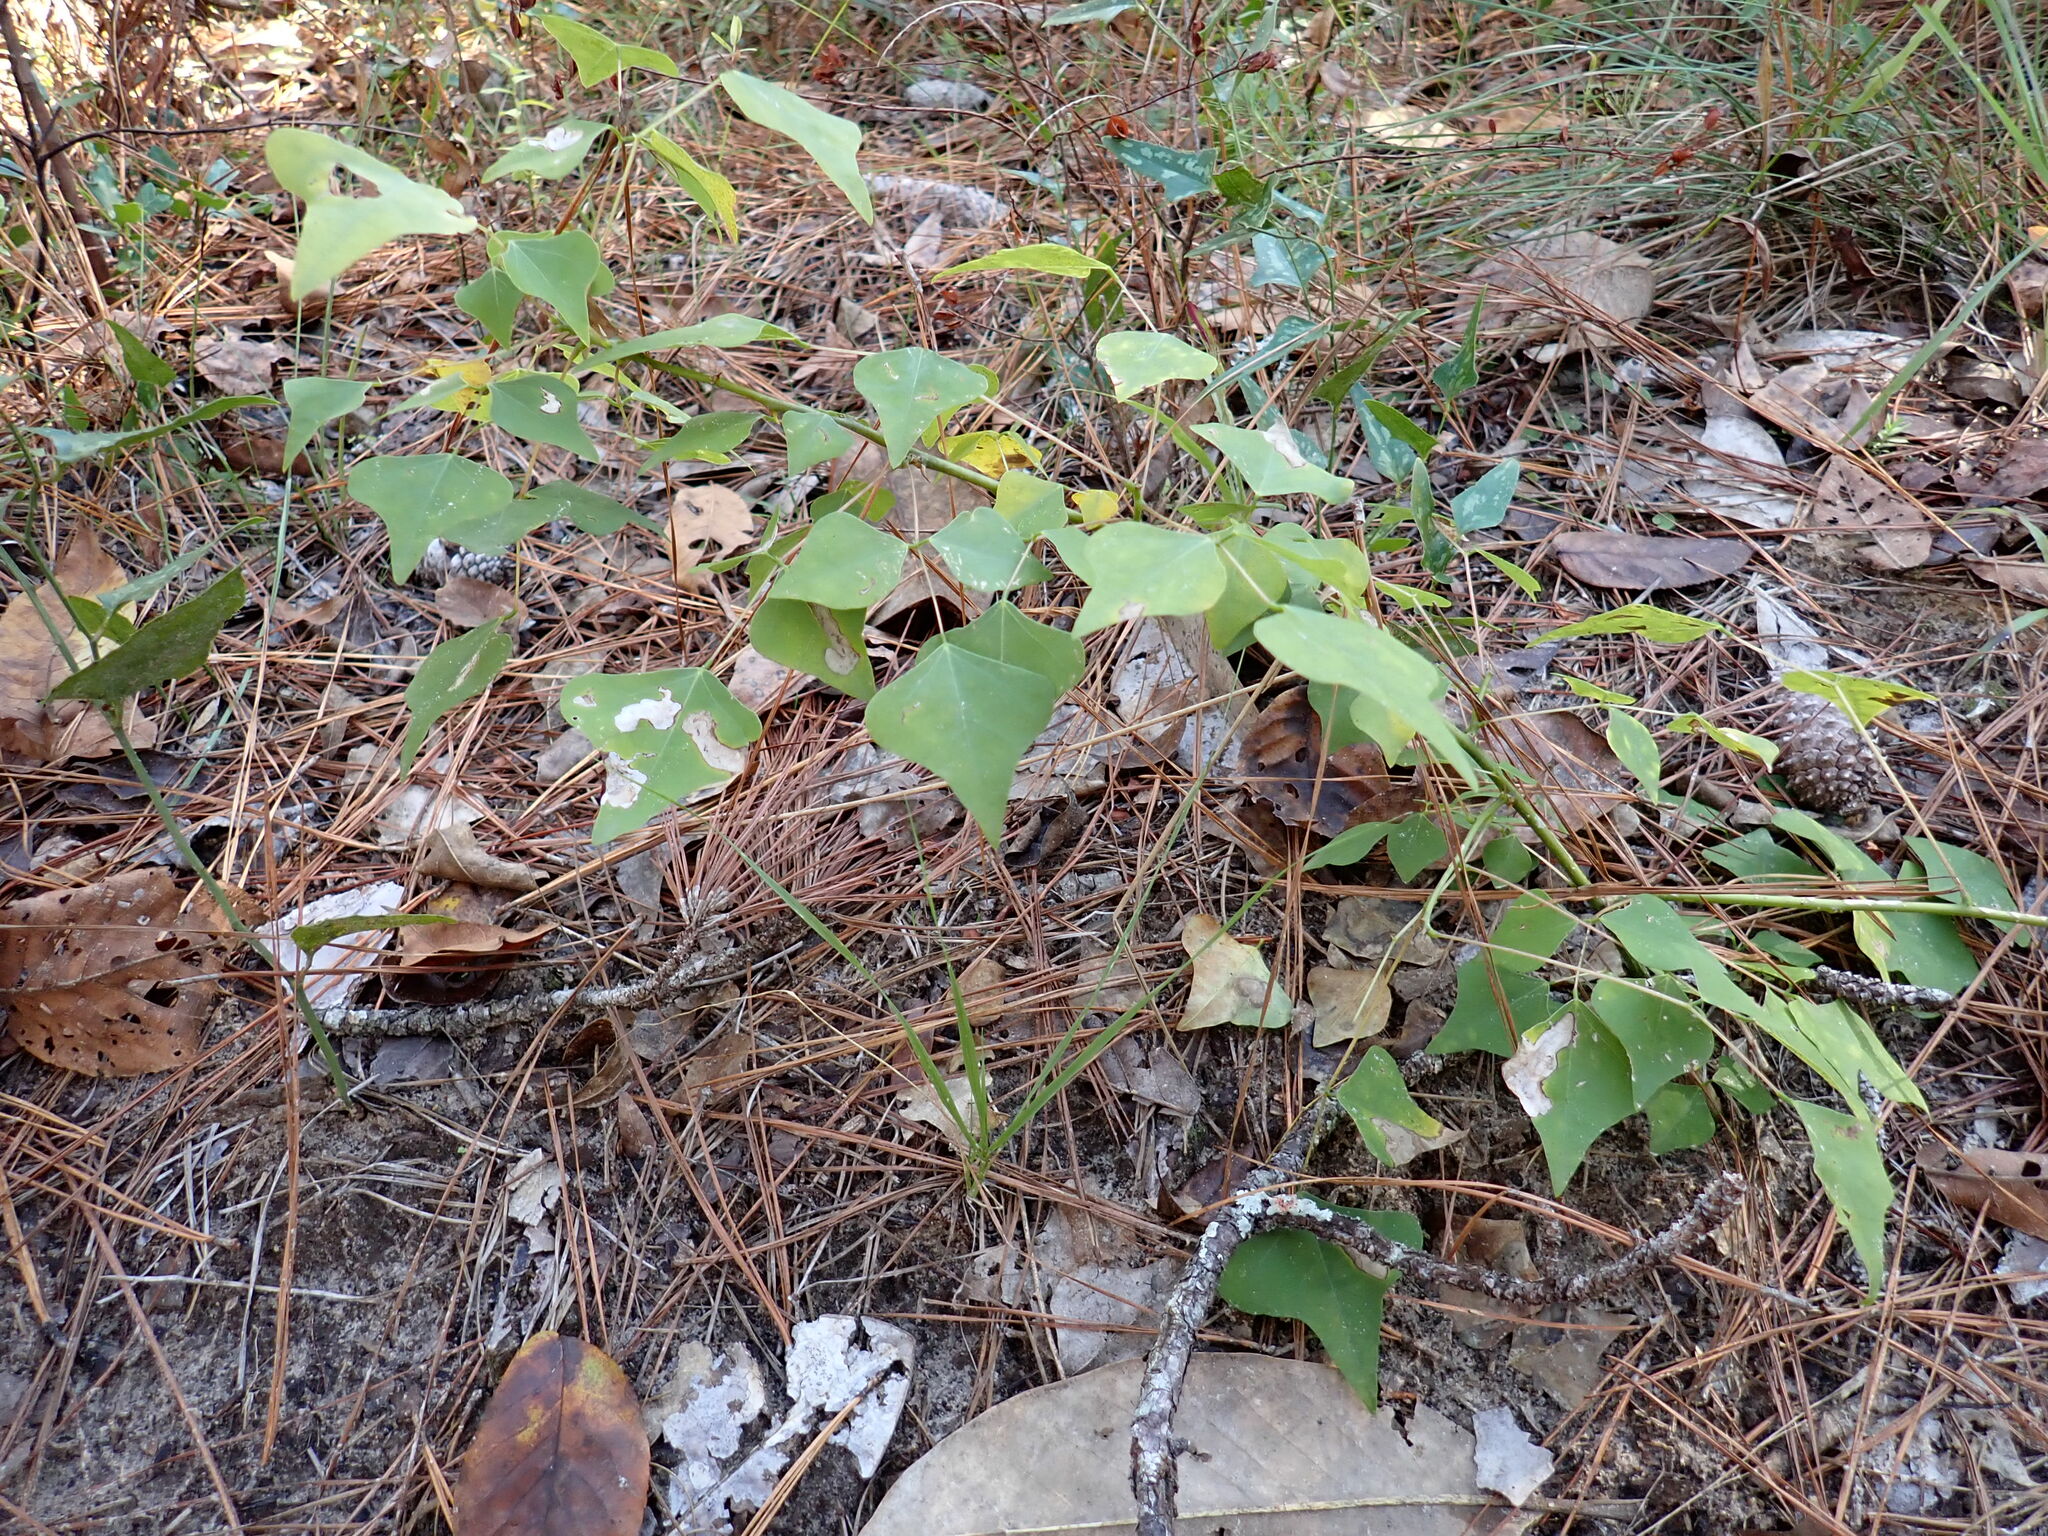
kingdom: Plantae
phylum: Tracheophyta
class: Magnoliopsida
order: Fabales
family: Fabaceae
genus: Erythrina
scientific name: Erythrina herbacea
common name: Coral-bean
